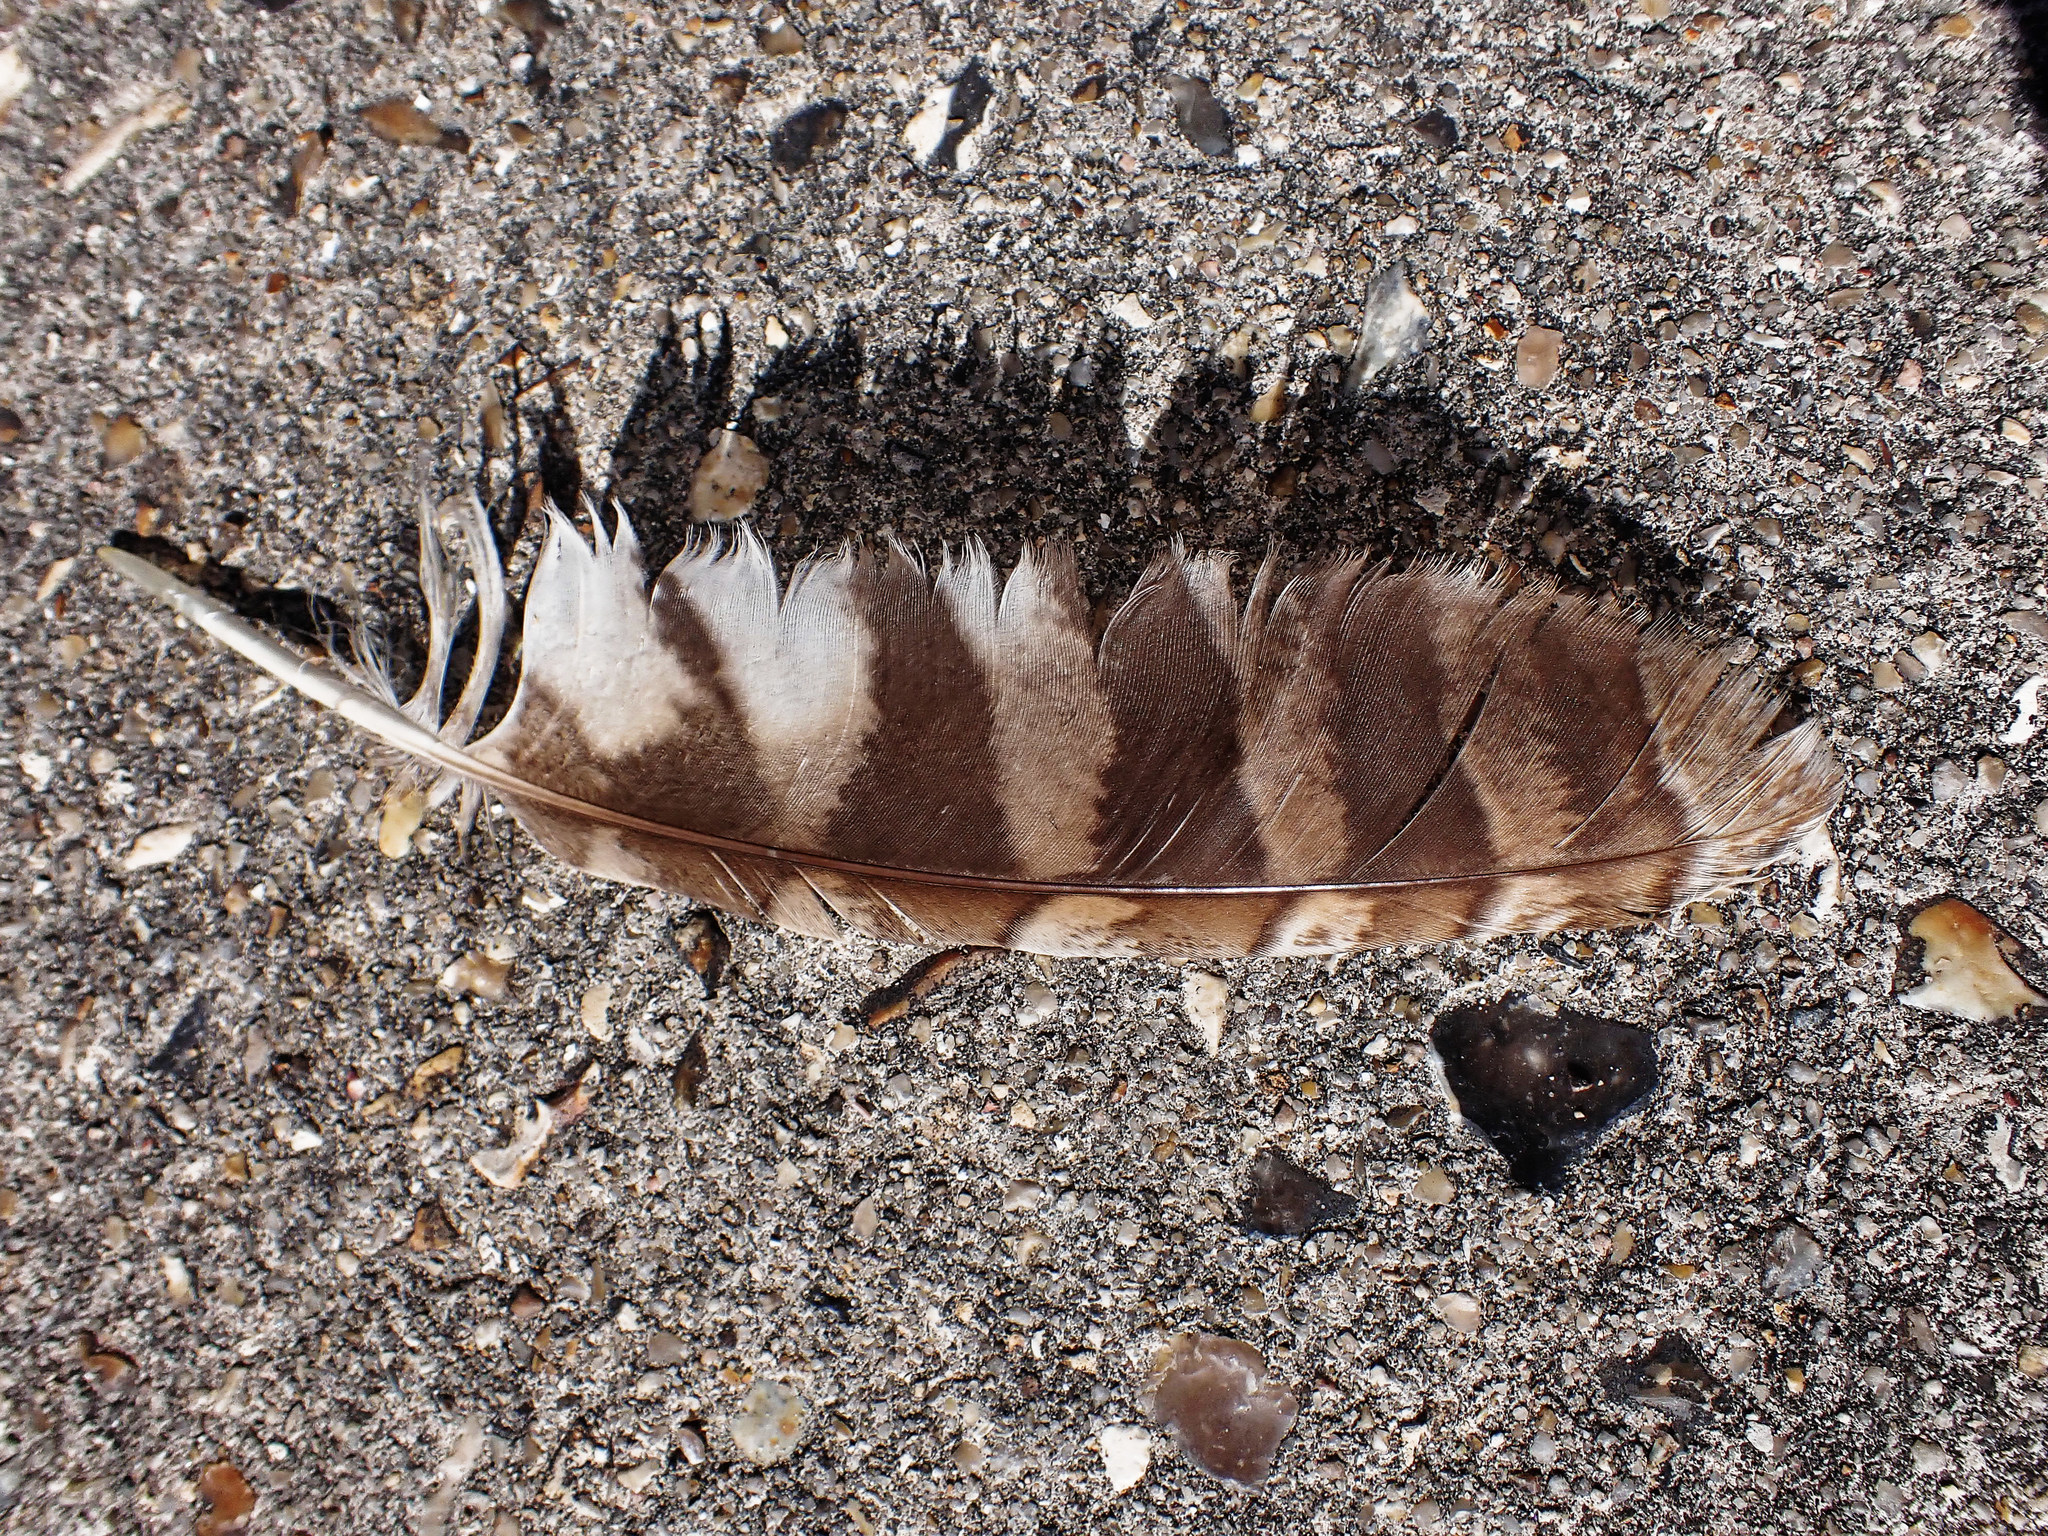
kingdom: Animalia
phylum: Chordata
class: Aves
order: Strigiformes
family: Strigidae
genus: Strix
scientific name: Strix aluco
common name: Tawny owl
